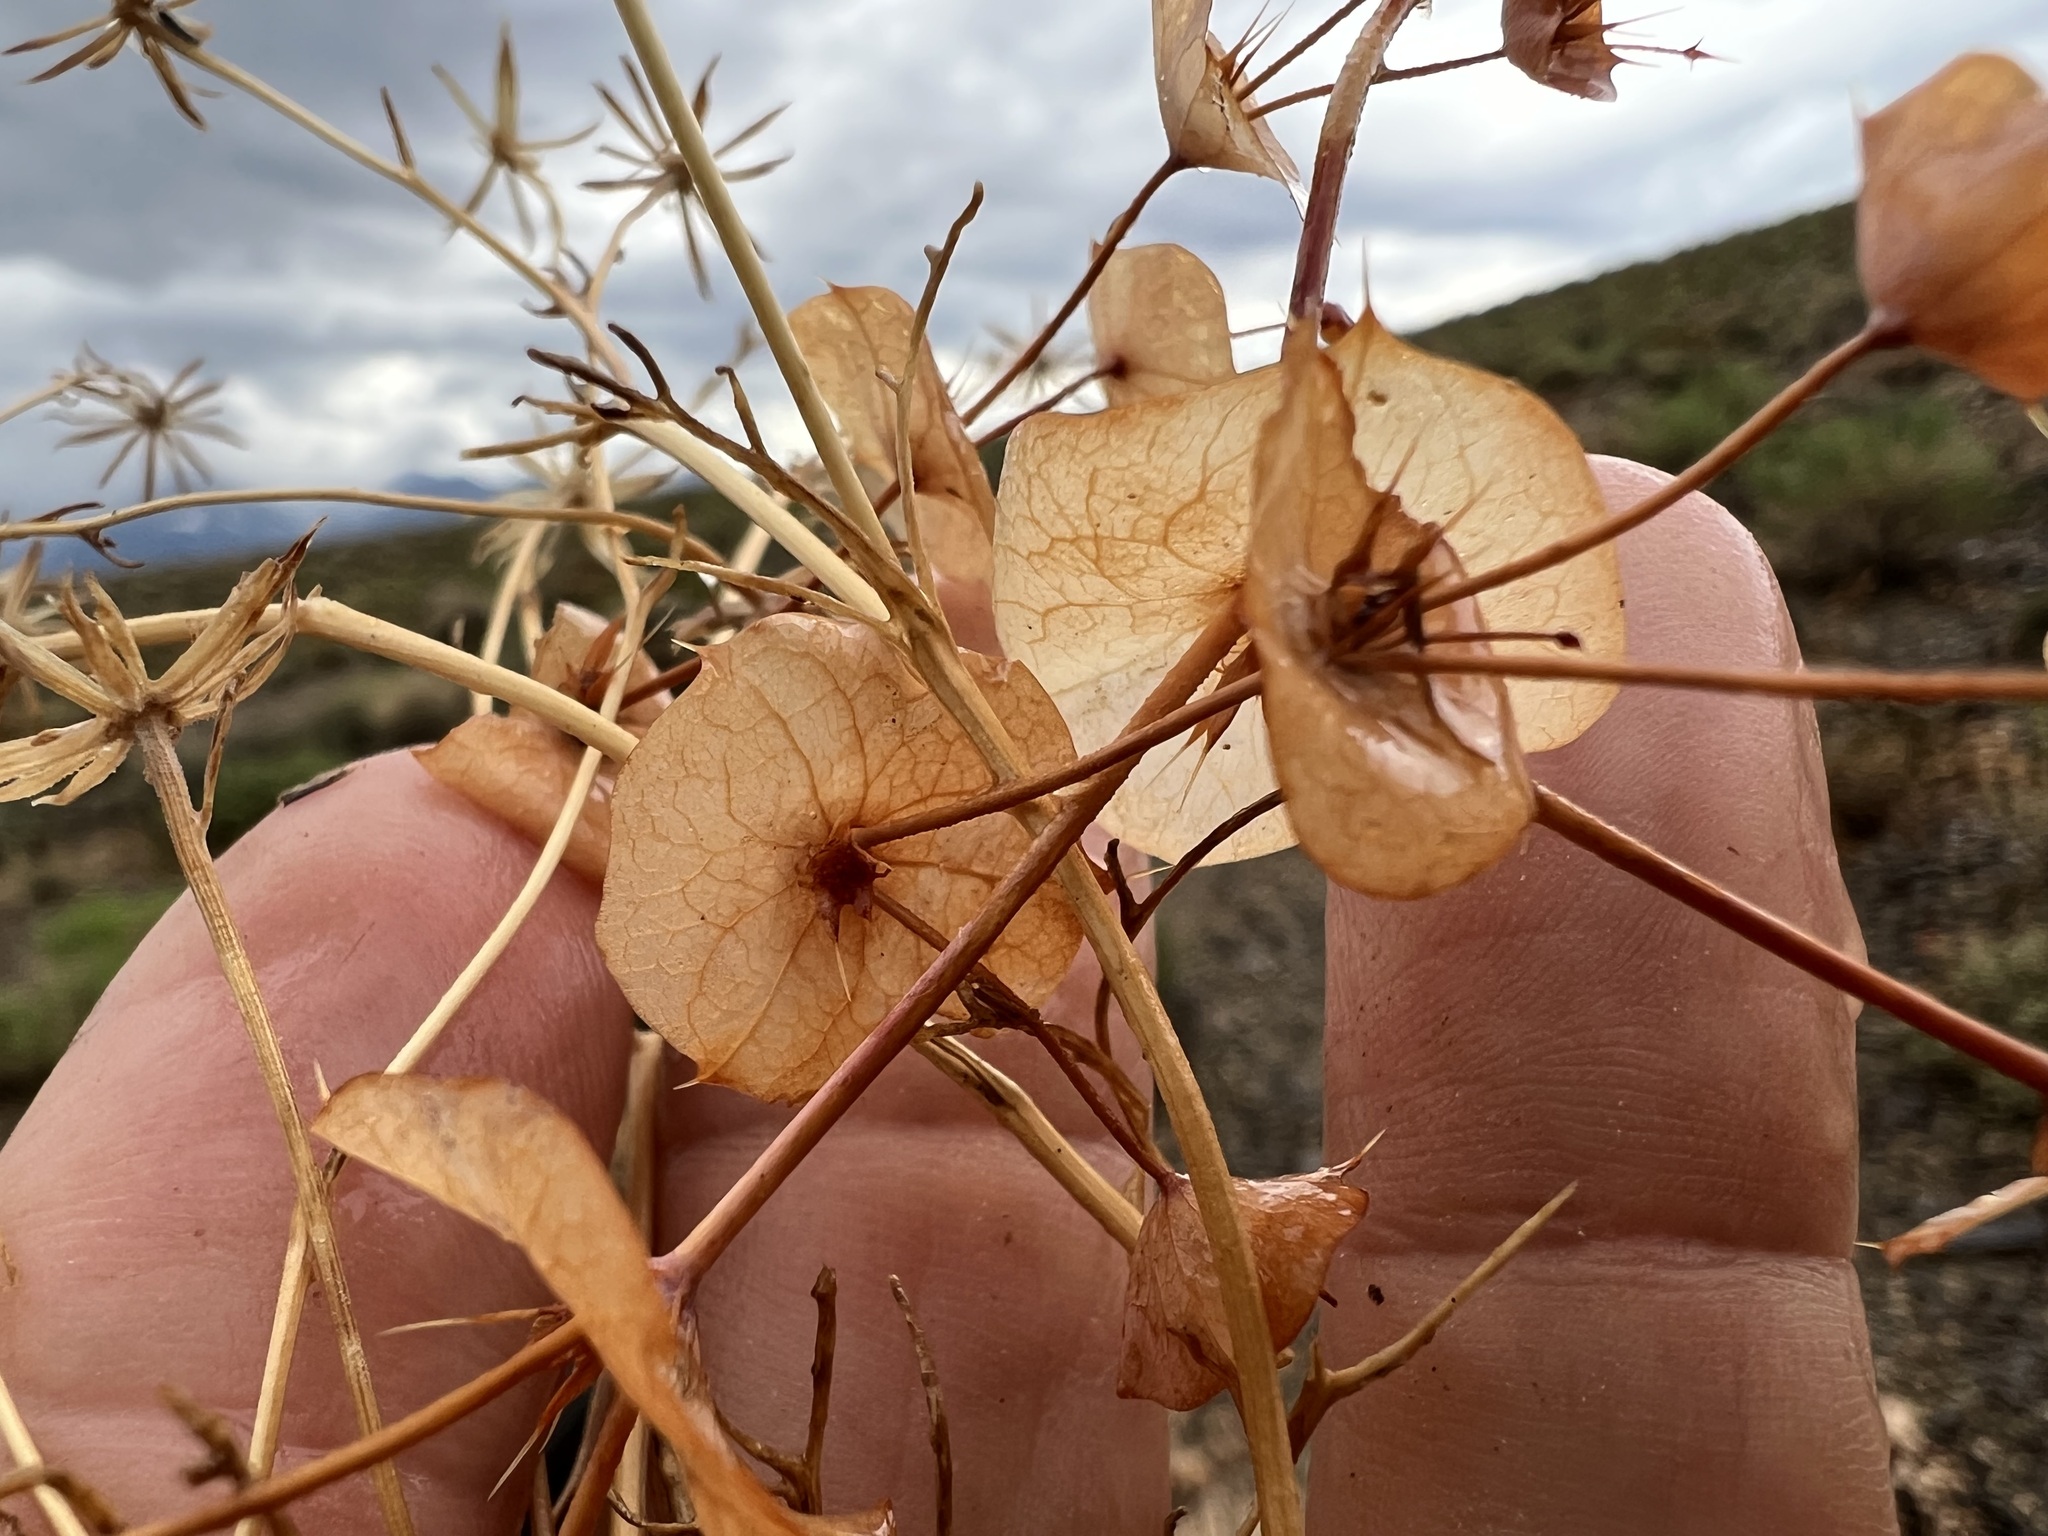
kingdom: Plantae
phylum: Tracheophyta
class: Magnoliopsida
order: Caryophyllales
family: Polygonaceae
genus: Oxytheca
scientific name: Oxytheca perfoliata
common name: Round-leaf puncturebract
